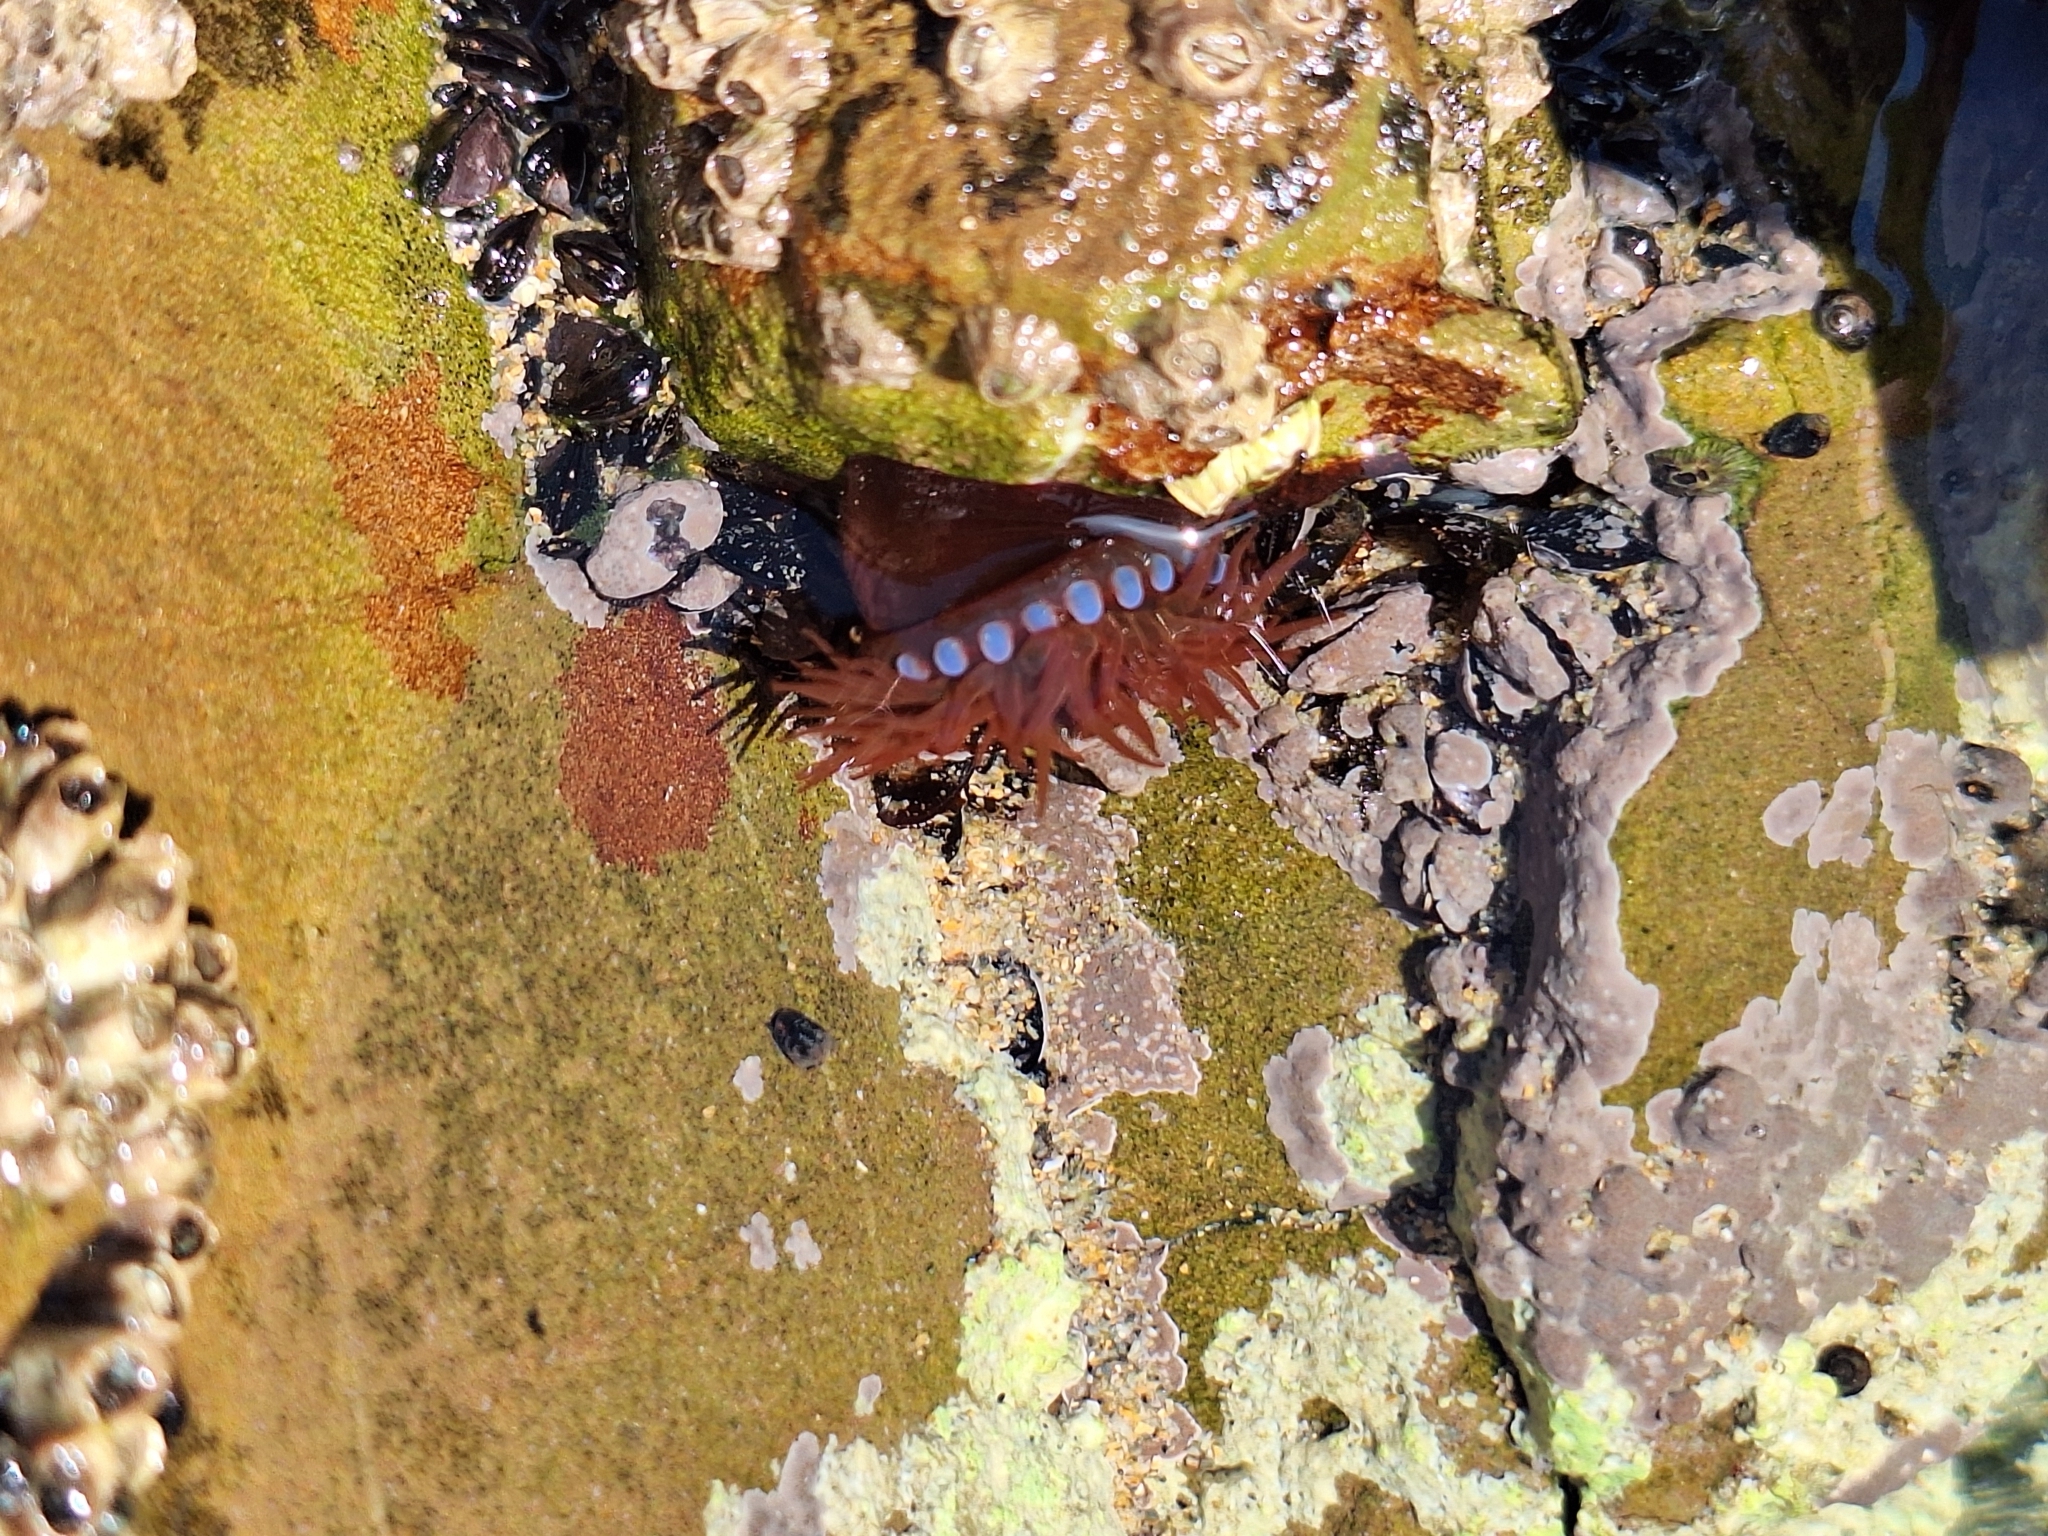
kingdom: Animalia
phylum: Cnidaria
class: Anthozoa
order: Actiniaria
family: Actiniidae
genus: Actinia
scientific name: Actinia equina
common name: Beadlet anemone
